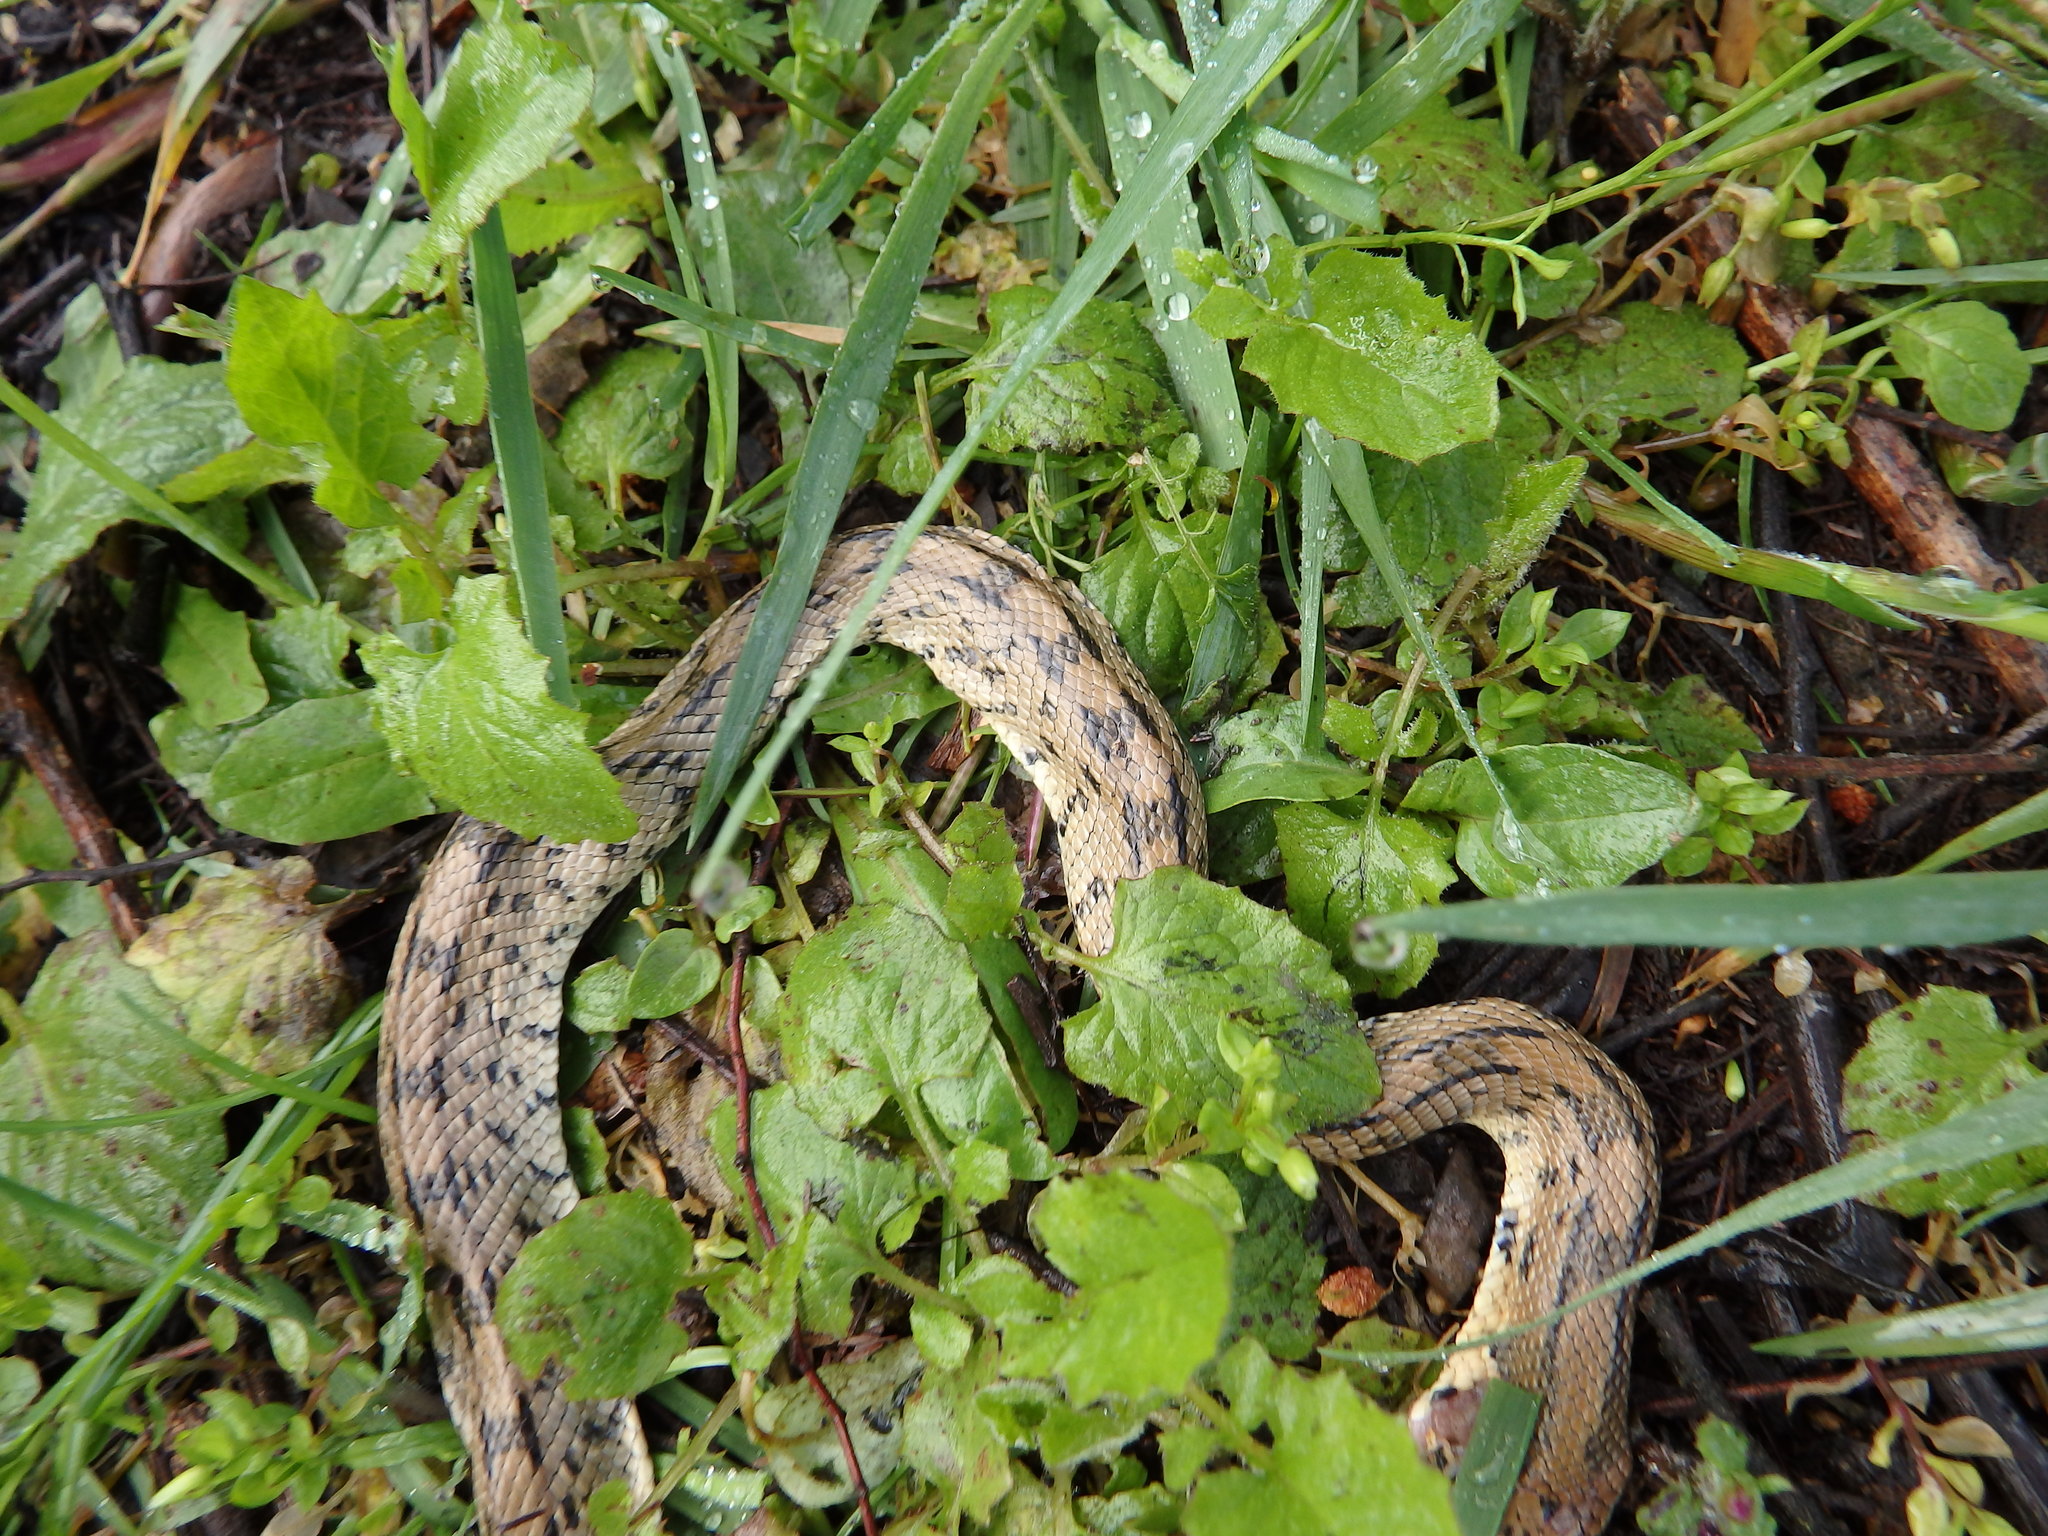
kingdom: Animalia
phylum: Chordata
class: Squamata
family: Colubridae
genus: Zamenis
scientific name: Zamenis scalaris
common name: Ladder snakes
